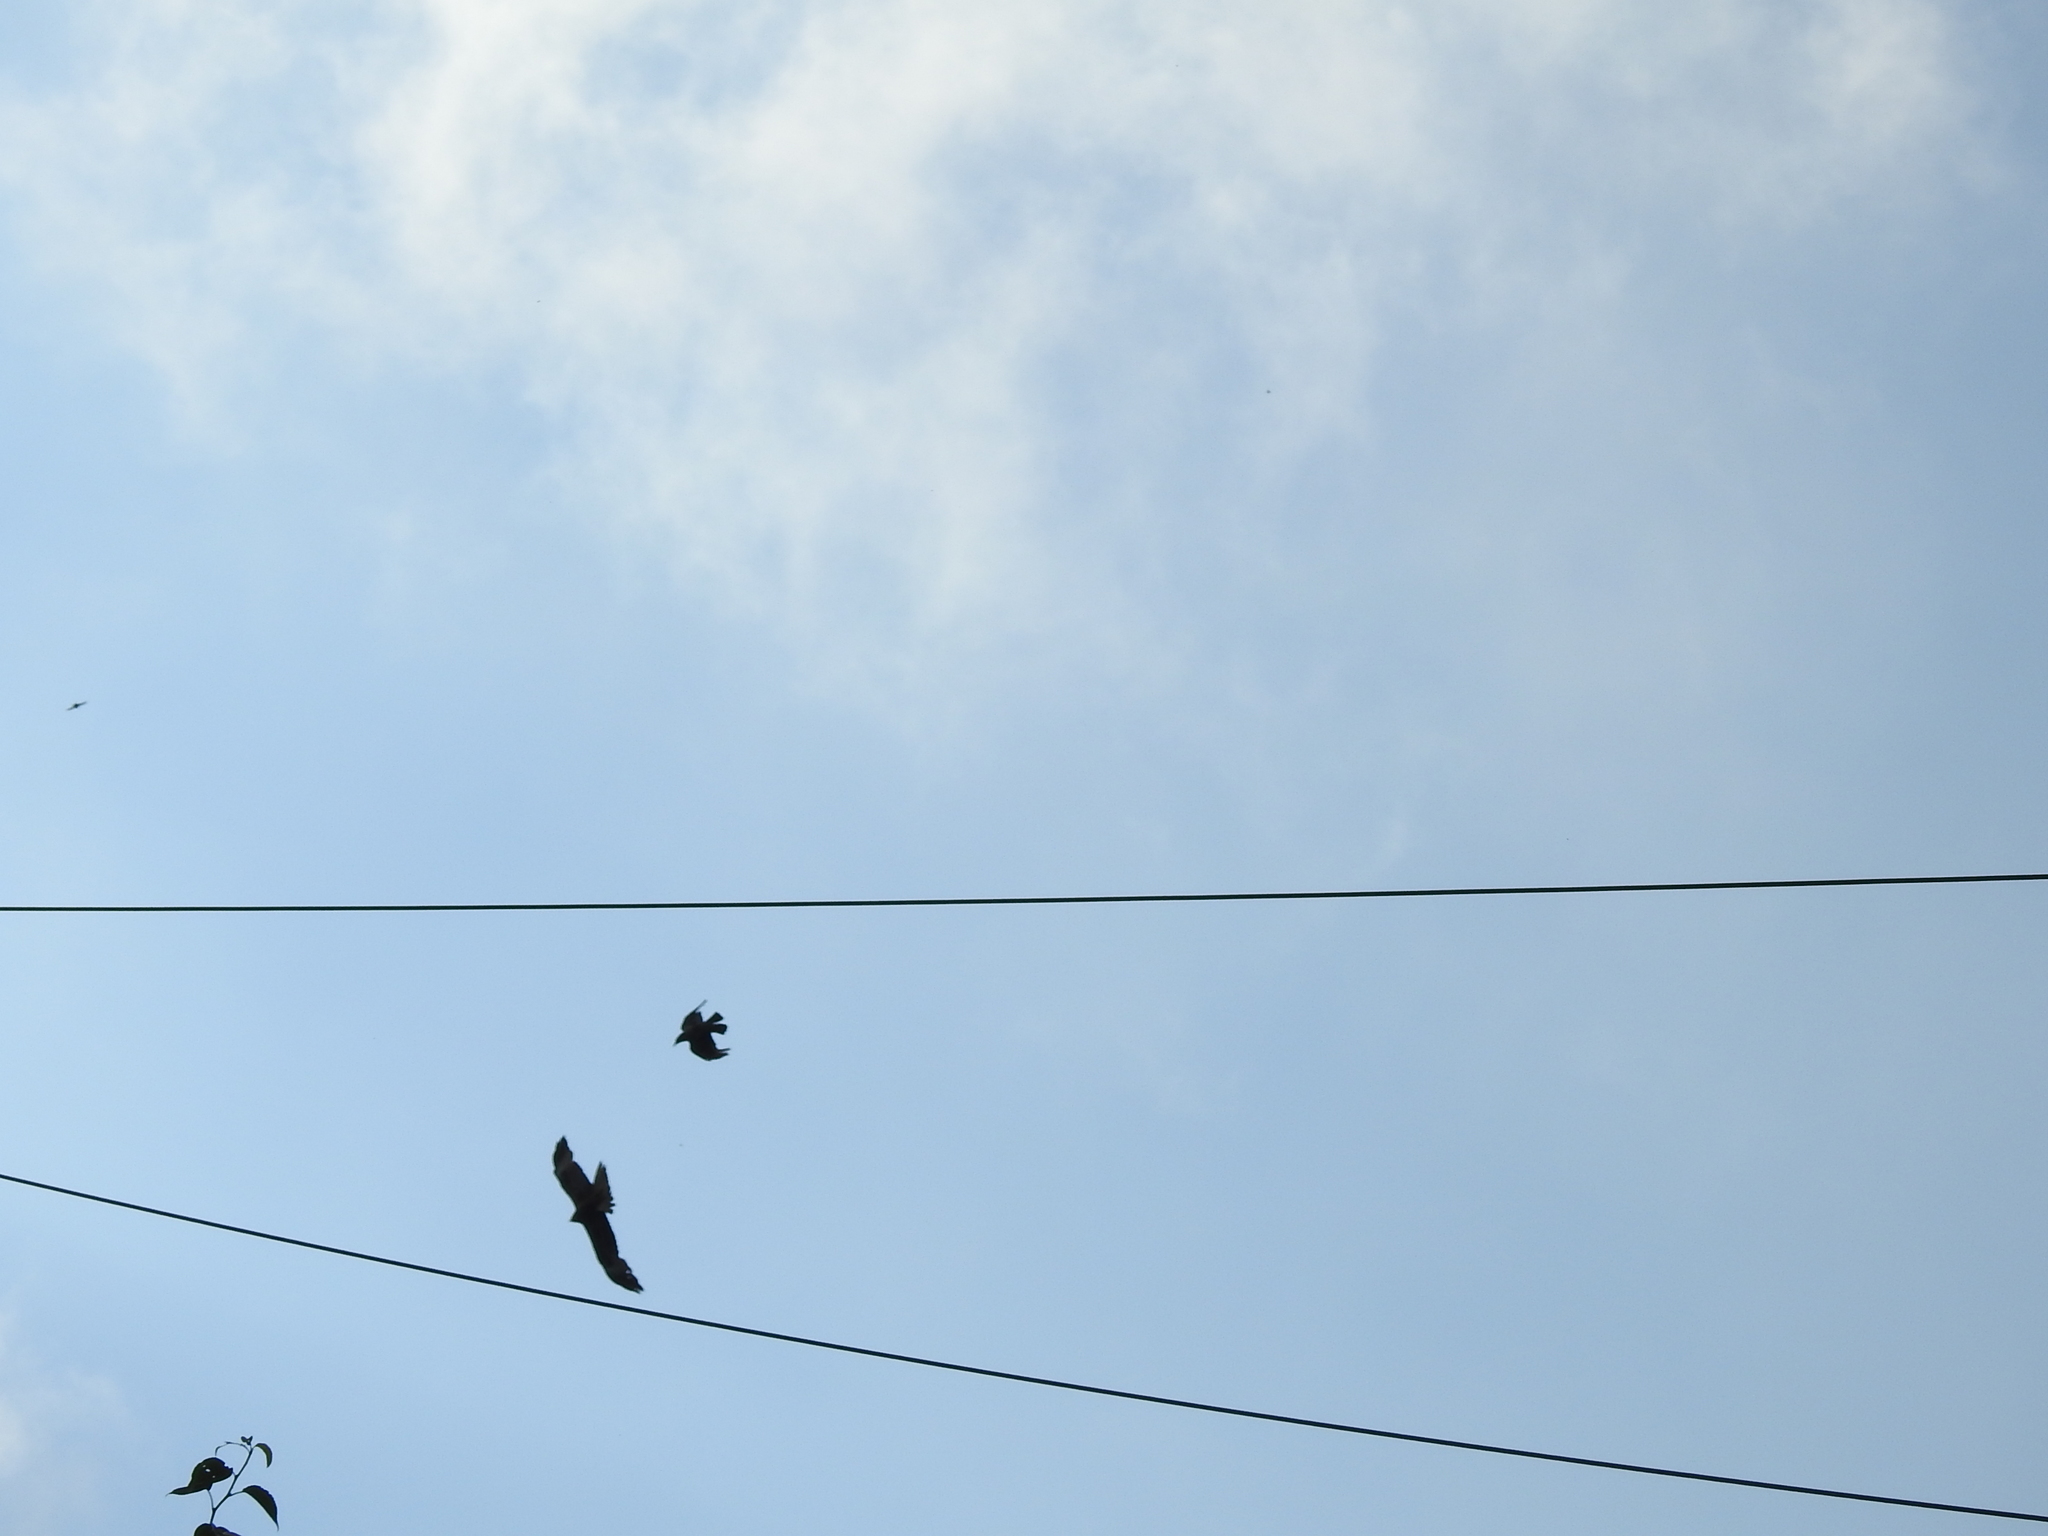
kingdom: Animalia
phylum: Chordata
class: Aves
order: Accipitriformes
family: Accipitridae
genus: Milvus
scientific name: Milvus migrans
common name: Black kite
